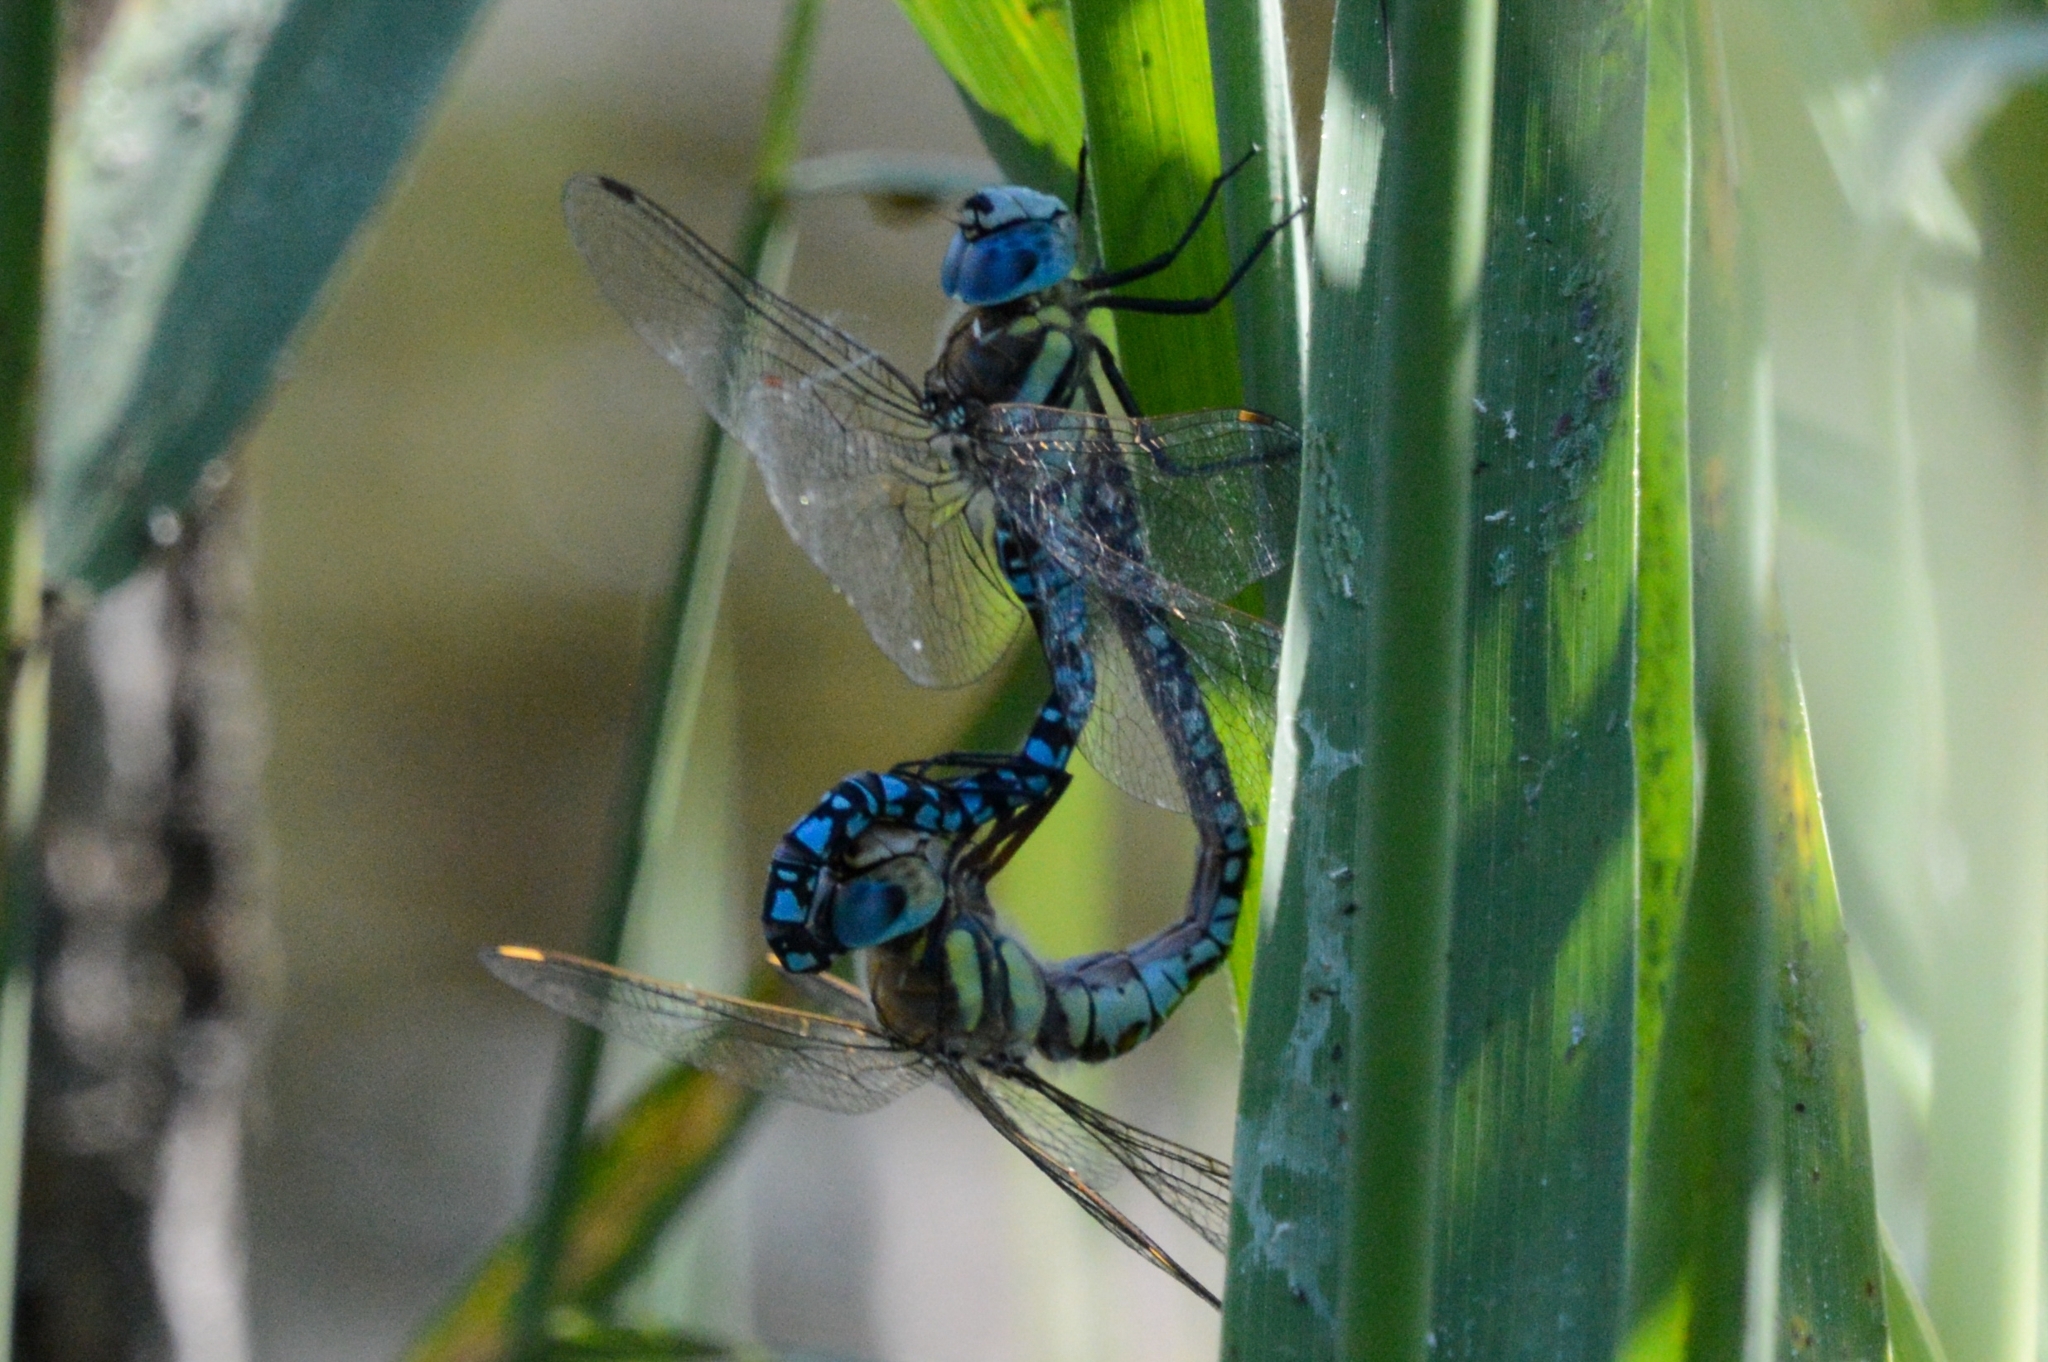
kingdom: Animalia
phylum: Arthropoda
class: Insecta
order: Odonata
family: Aeshnidae
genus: Aeshna
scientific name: Aeshna soneharai
